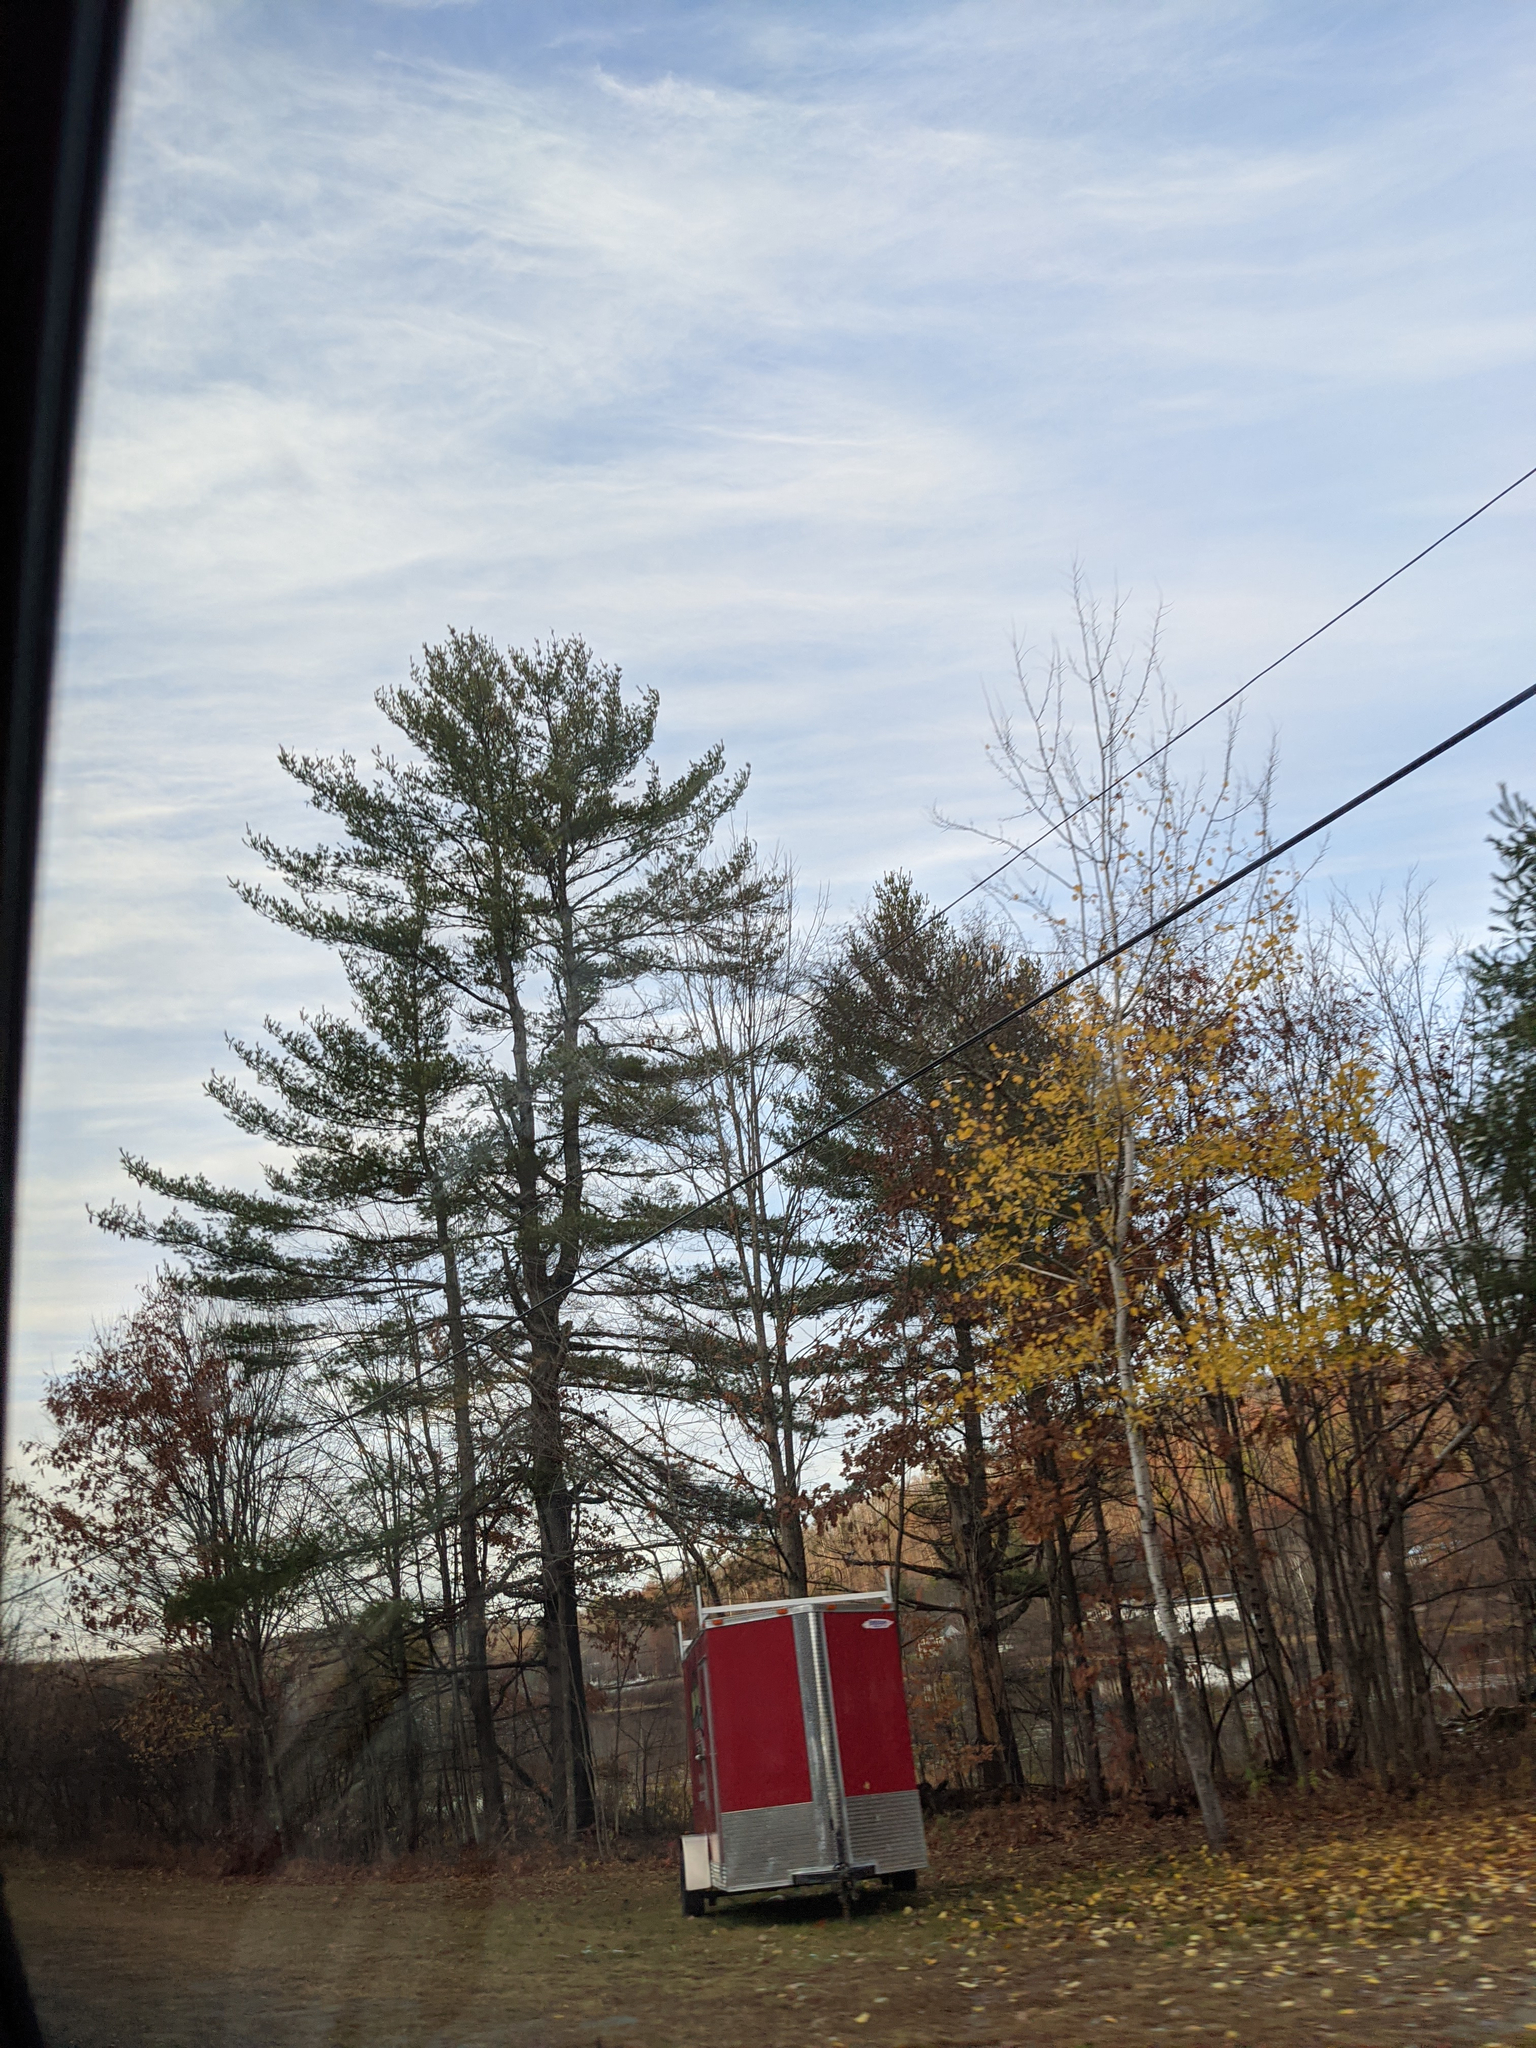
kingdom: Plantae
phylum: Tracheophyta
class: Pinopsida
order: Pinales
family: Pinaceae
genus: Pinus
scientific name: Pinus strobus
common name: Weymouth pine
